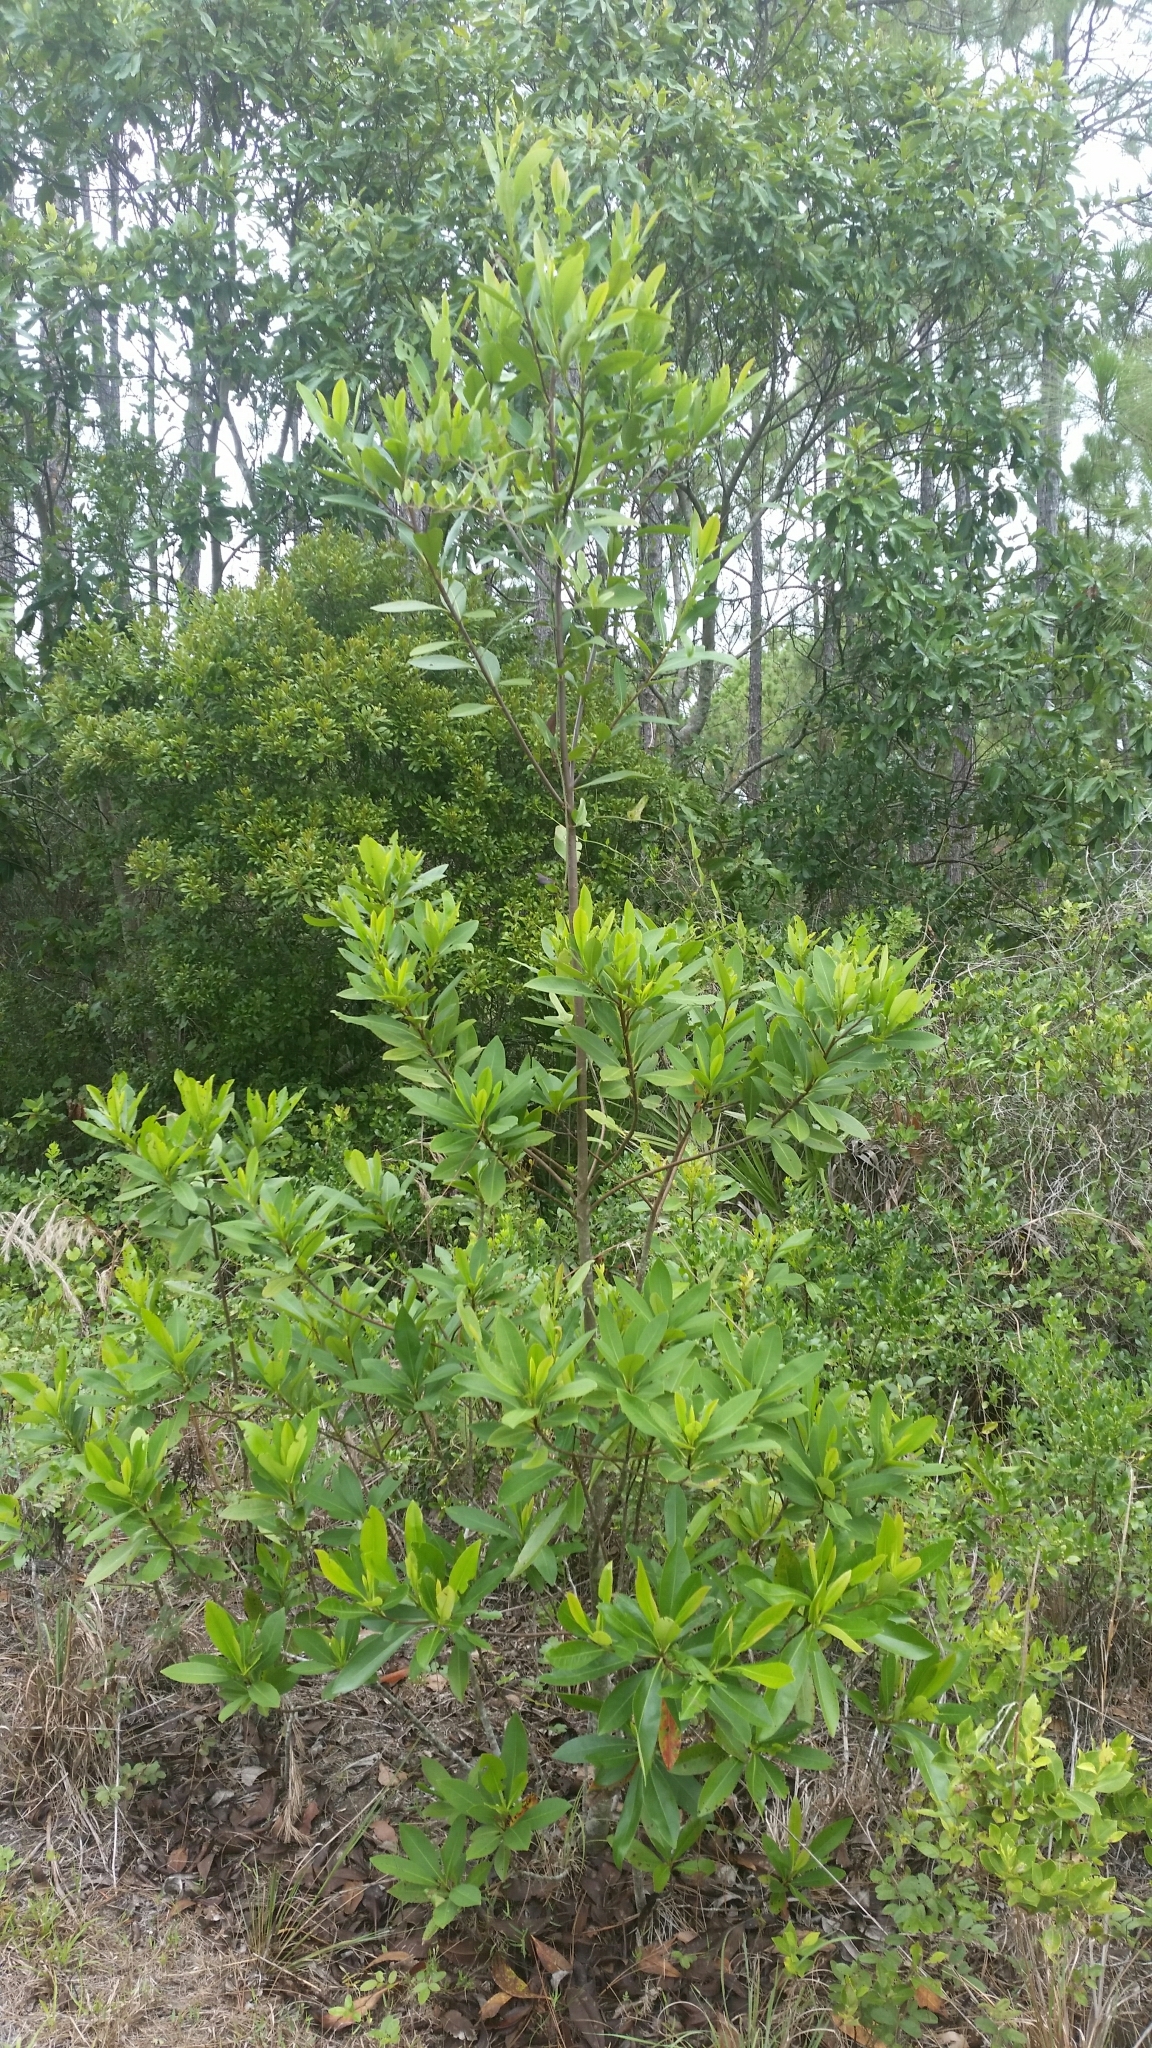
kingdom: Plantae
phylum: Tracheophyta
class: Magnoliopsida
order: Ericales
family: Theaceae
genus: Gordonia
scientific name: Gordonia lasianthus
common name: Loblolly bay
